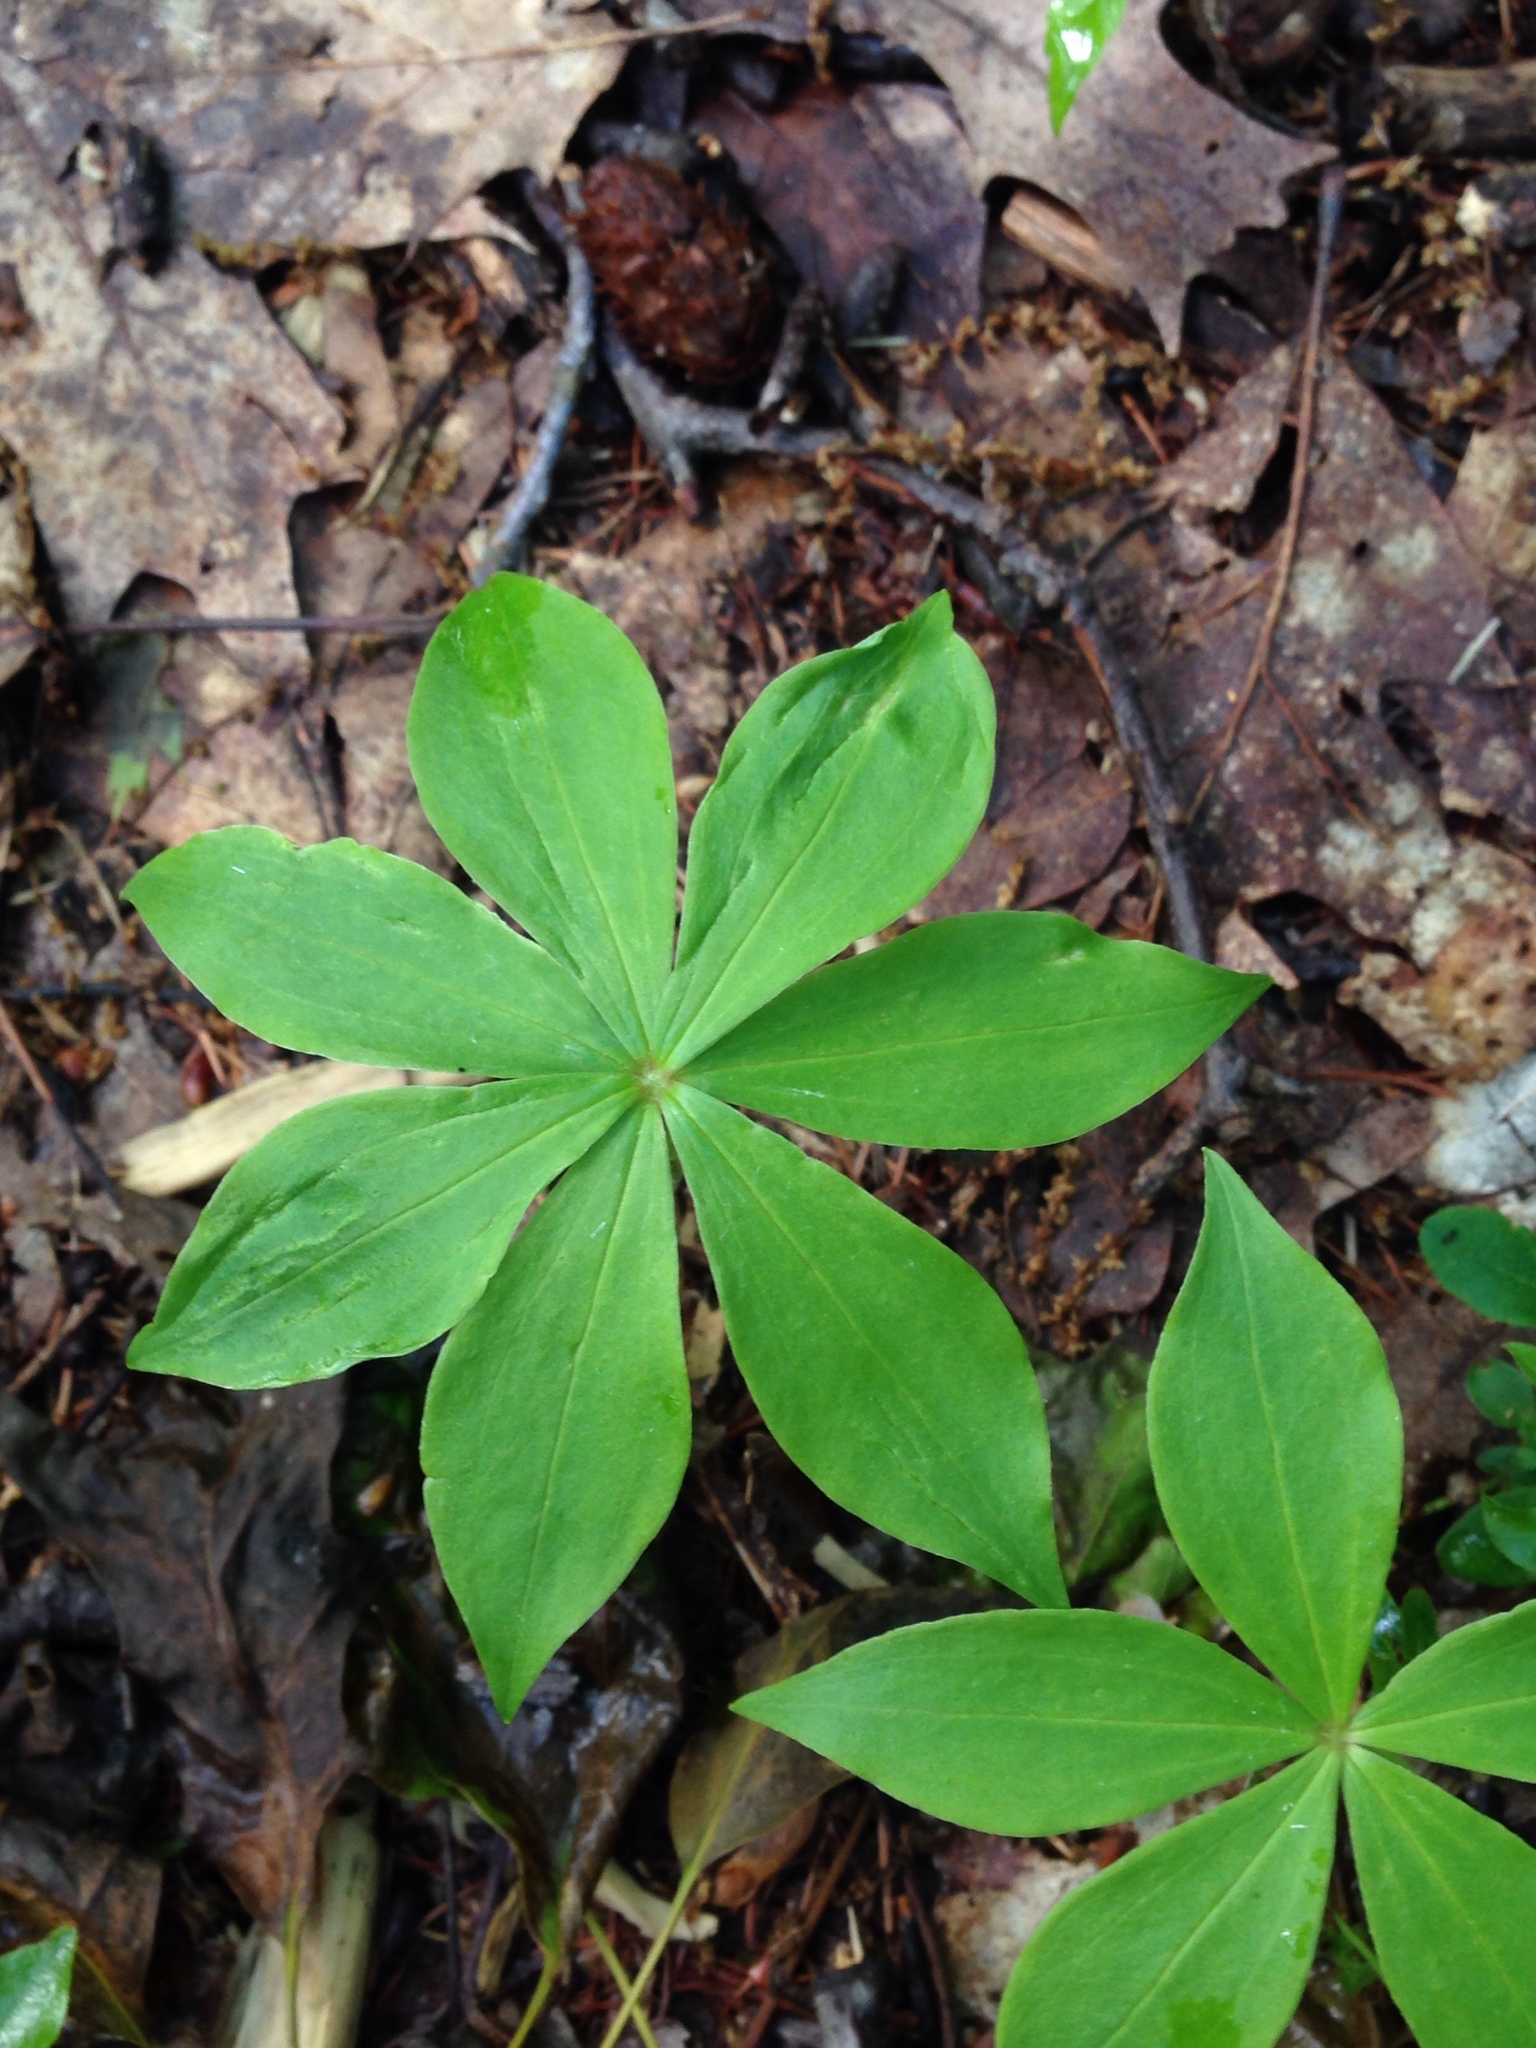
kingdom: Plantae
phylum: Tracheophyta
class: Liliopsida
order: Liliales
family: Liliaceae
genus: Medeola
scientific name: Medeola virginiana
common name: Indian cucumber-root
